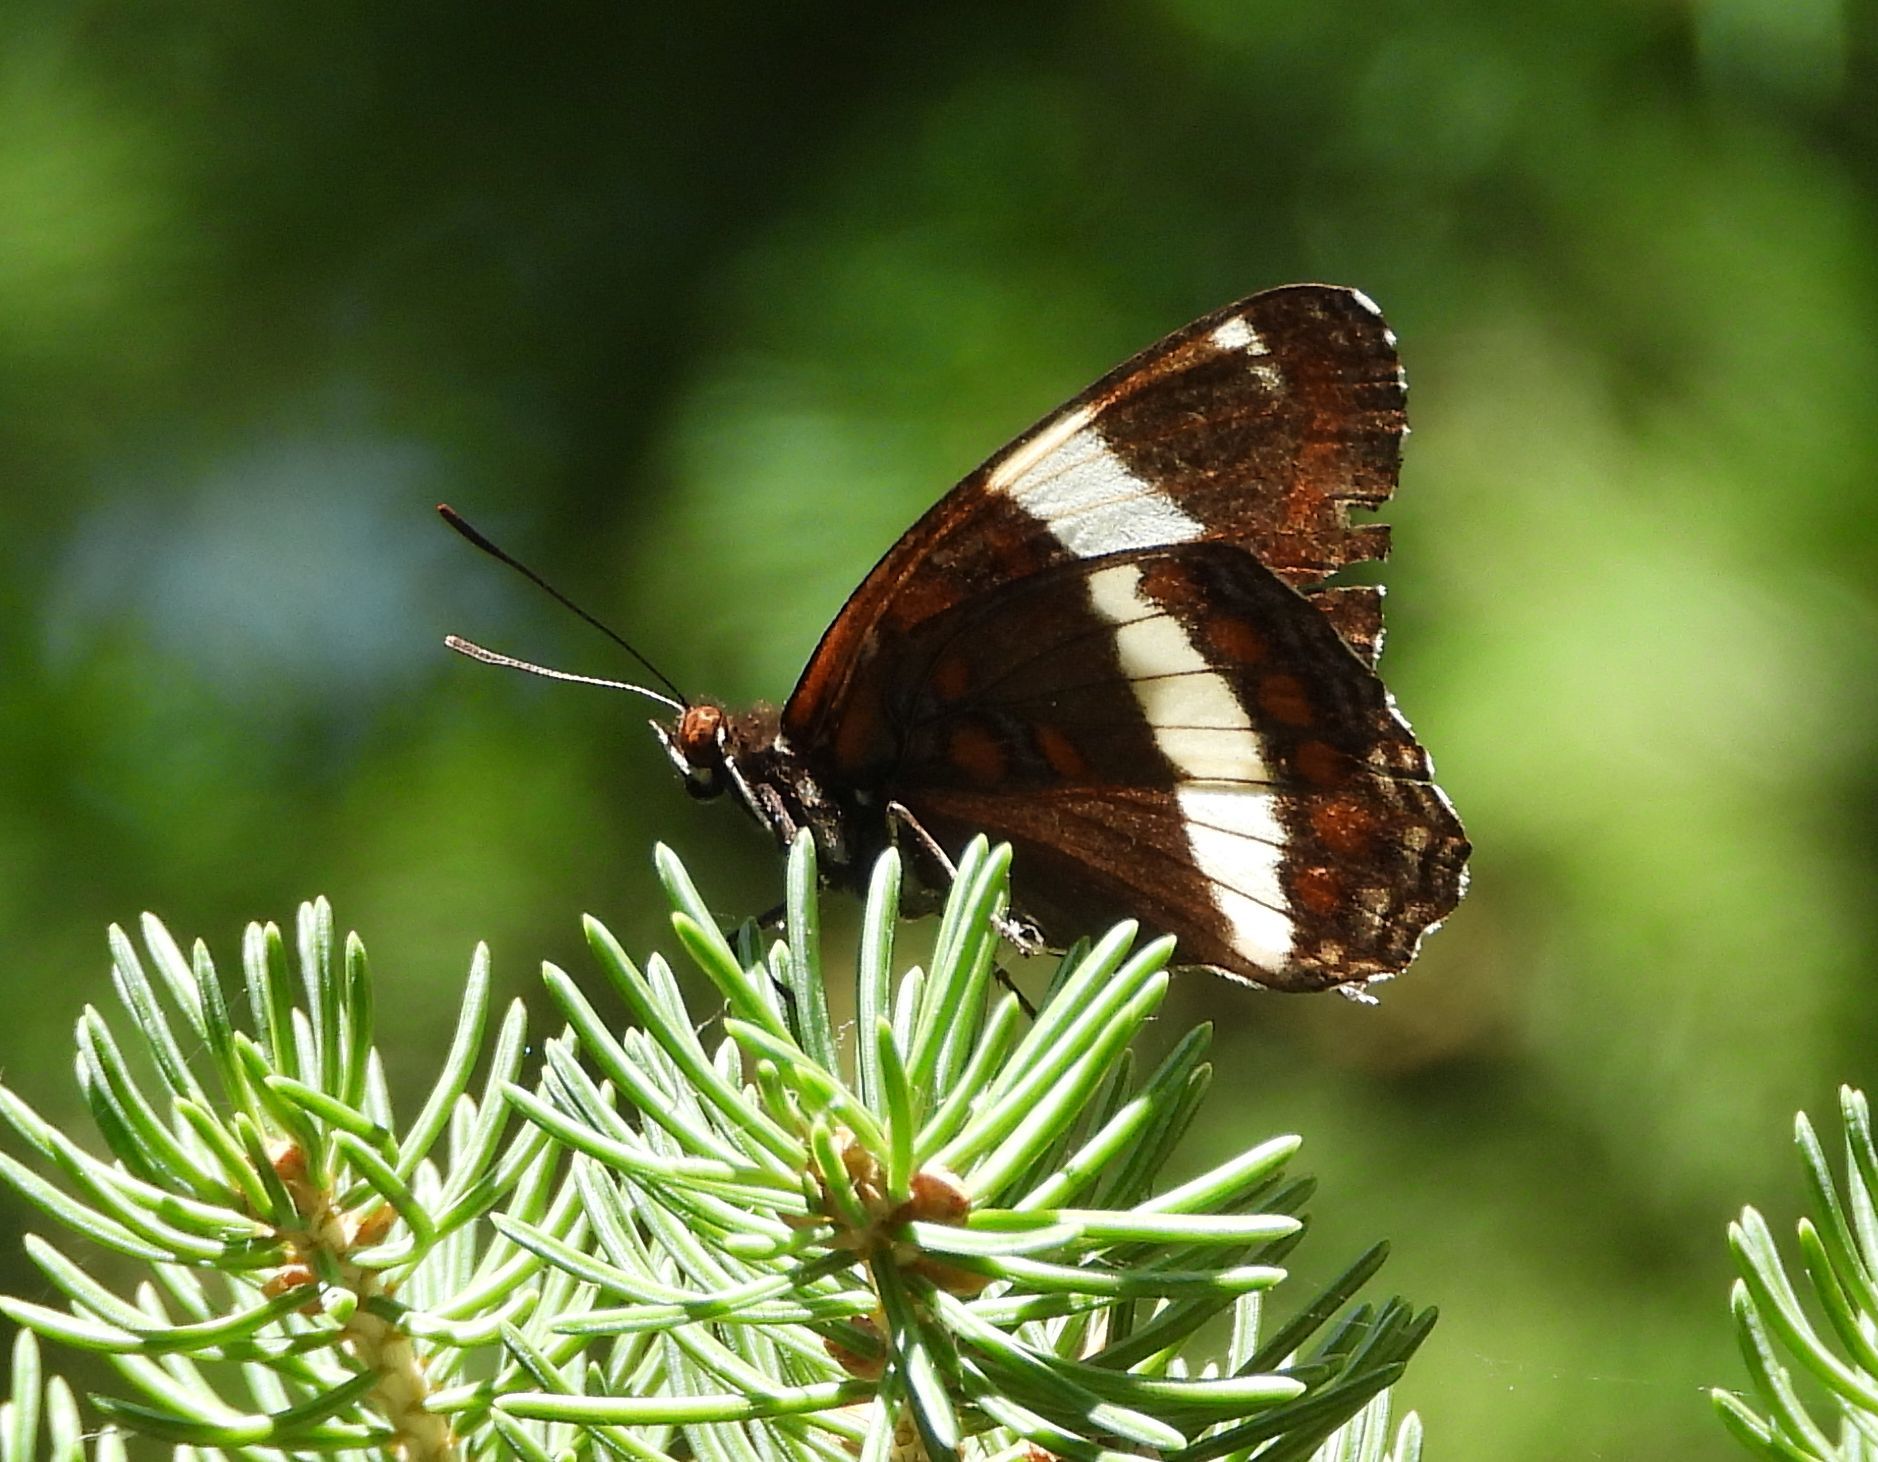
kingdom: Animalia
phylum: Arthropoda
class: Insecta
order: Lepidoptera
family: Nymphalidae
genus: Limenitis
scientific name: Limenitis arthemis
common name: Red-spotted admiral
